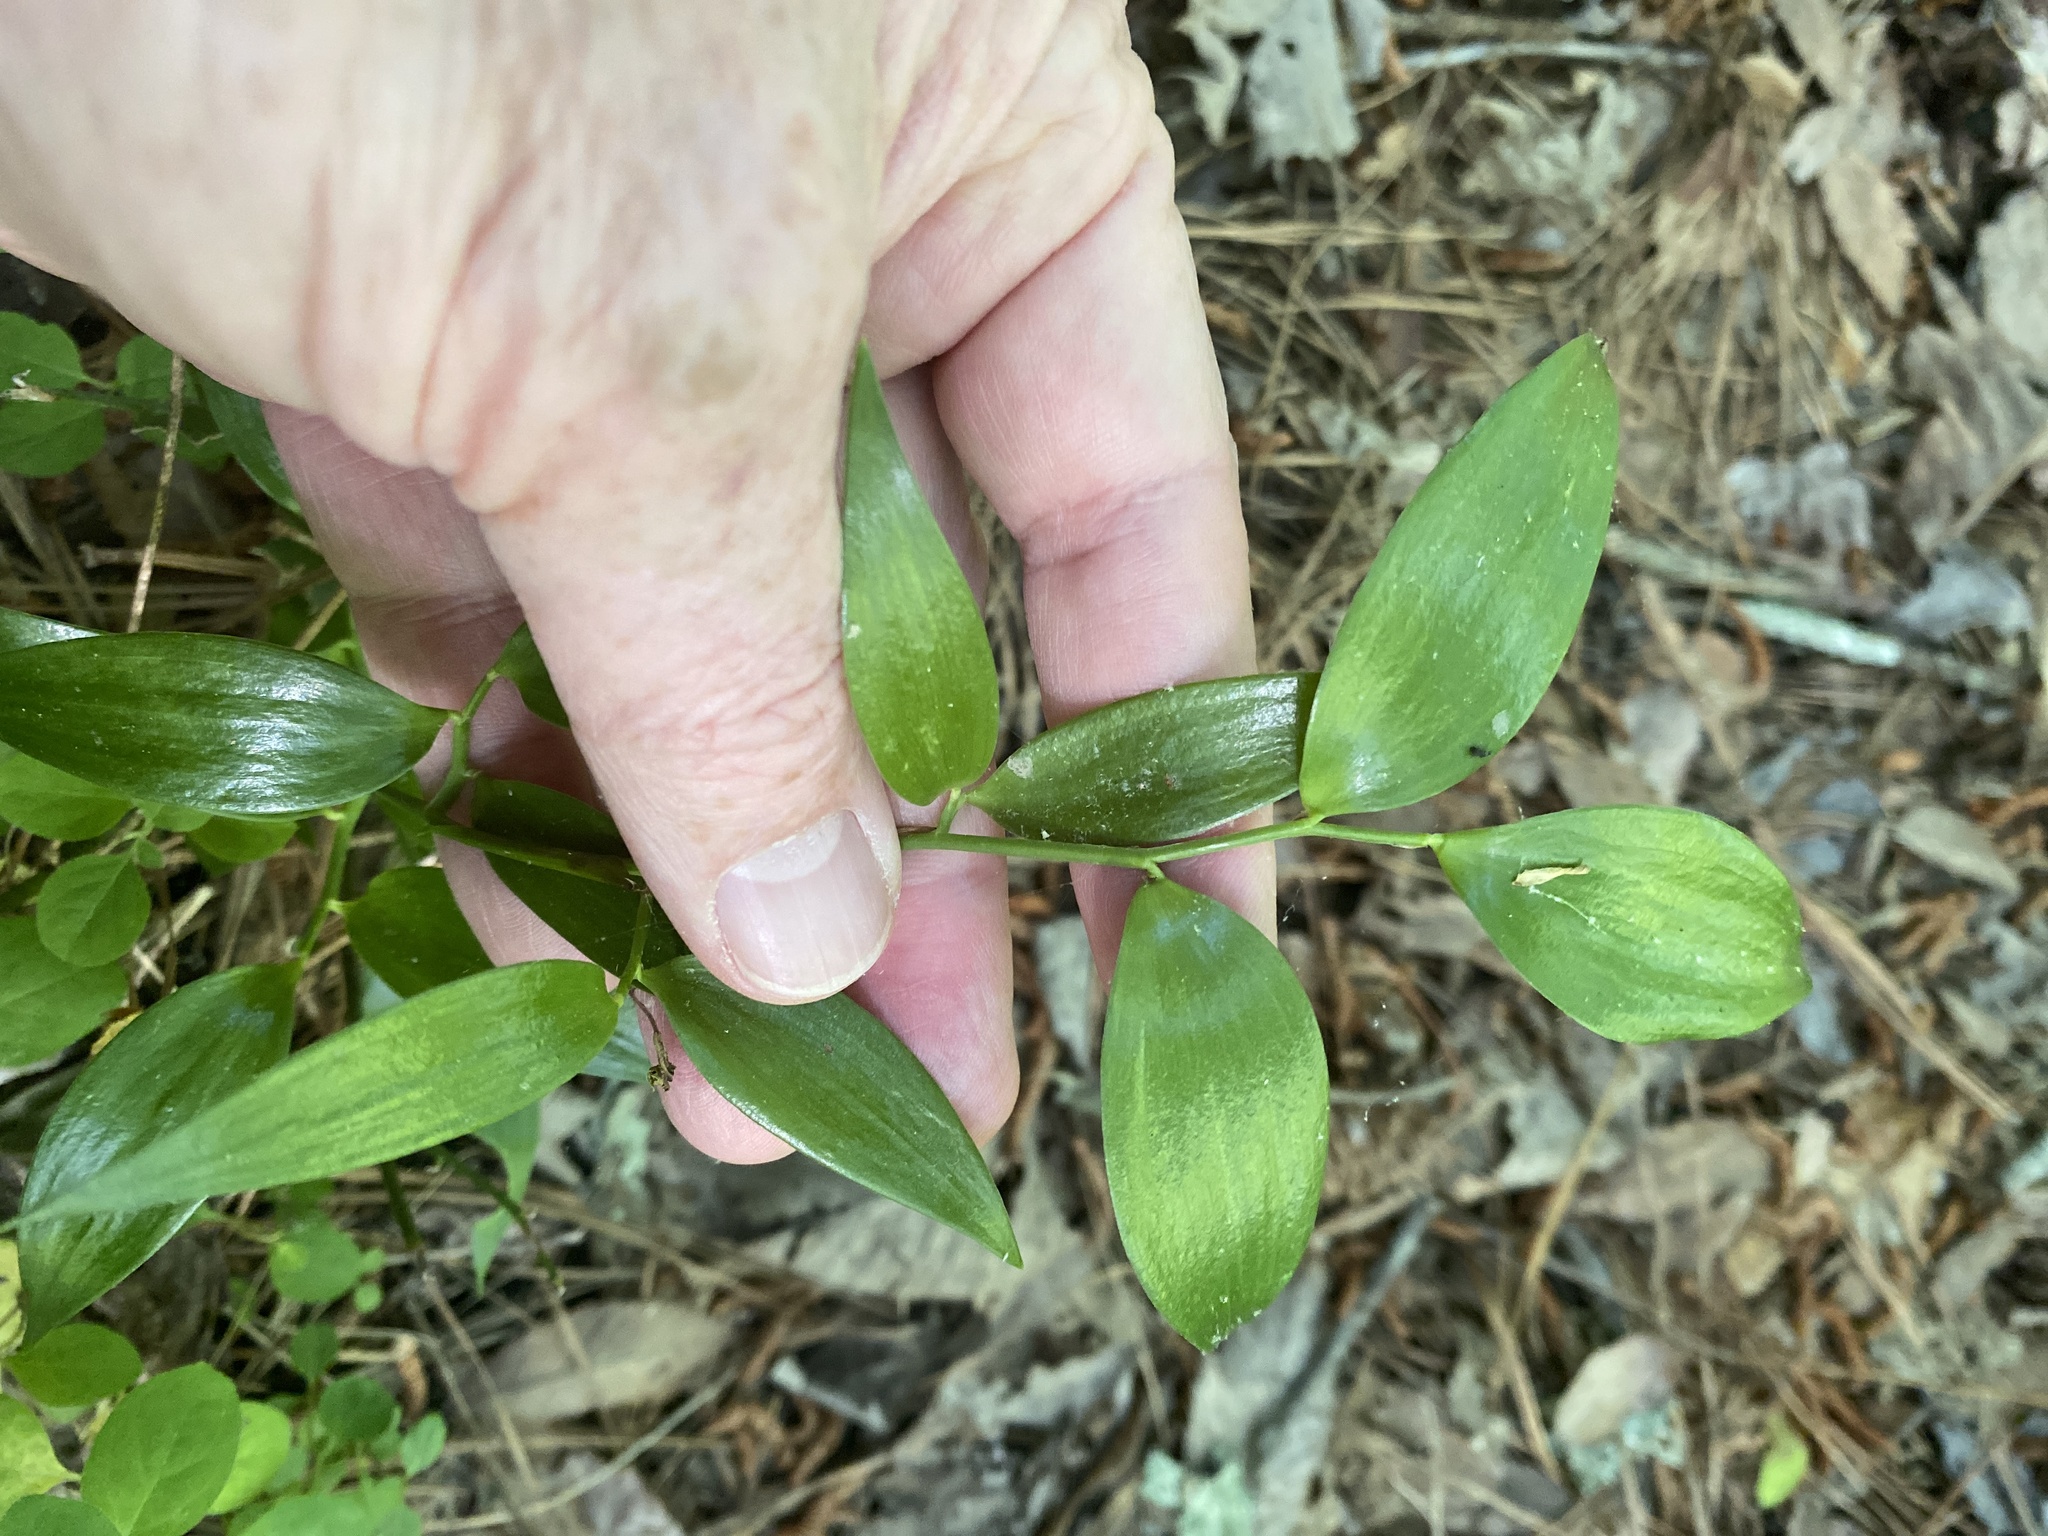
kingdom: Plantae
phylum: Tracheophyta
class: Liliopsida
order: Asparagales
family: Asparagaceae
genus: Danae
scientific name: Danae racemosa
